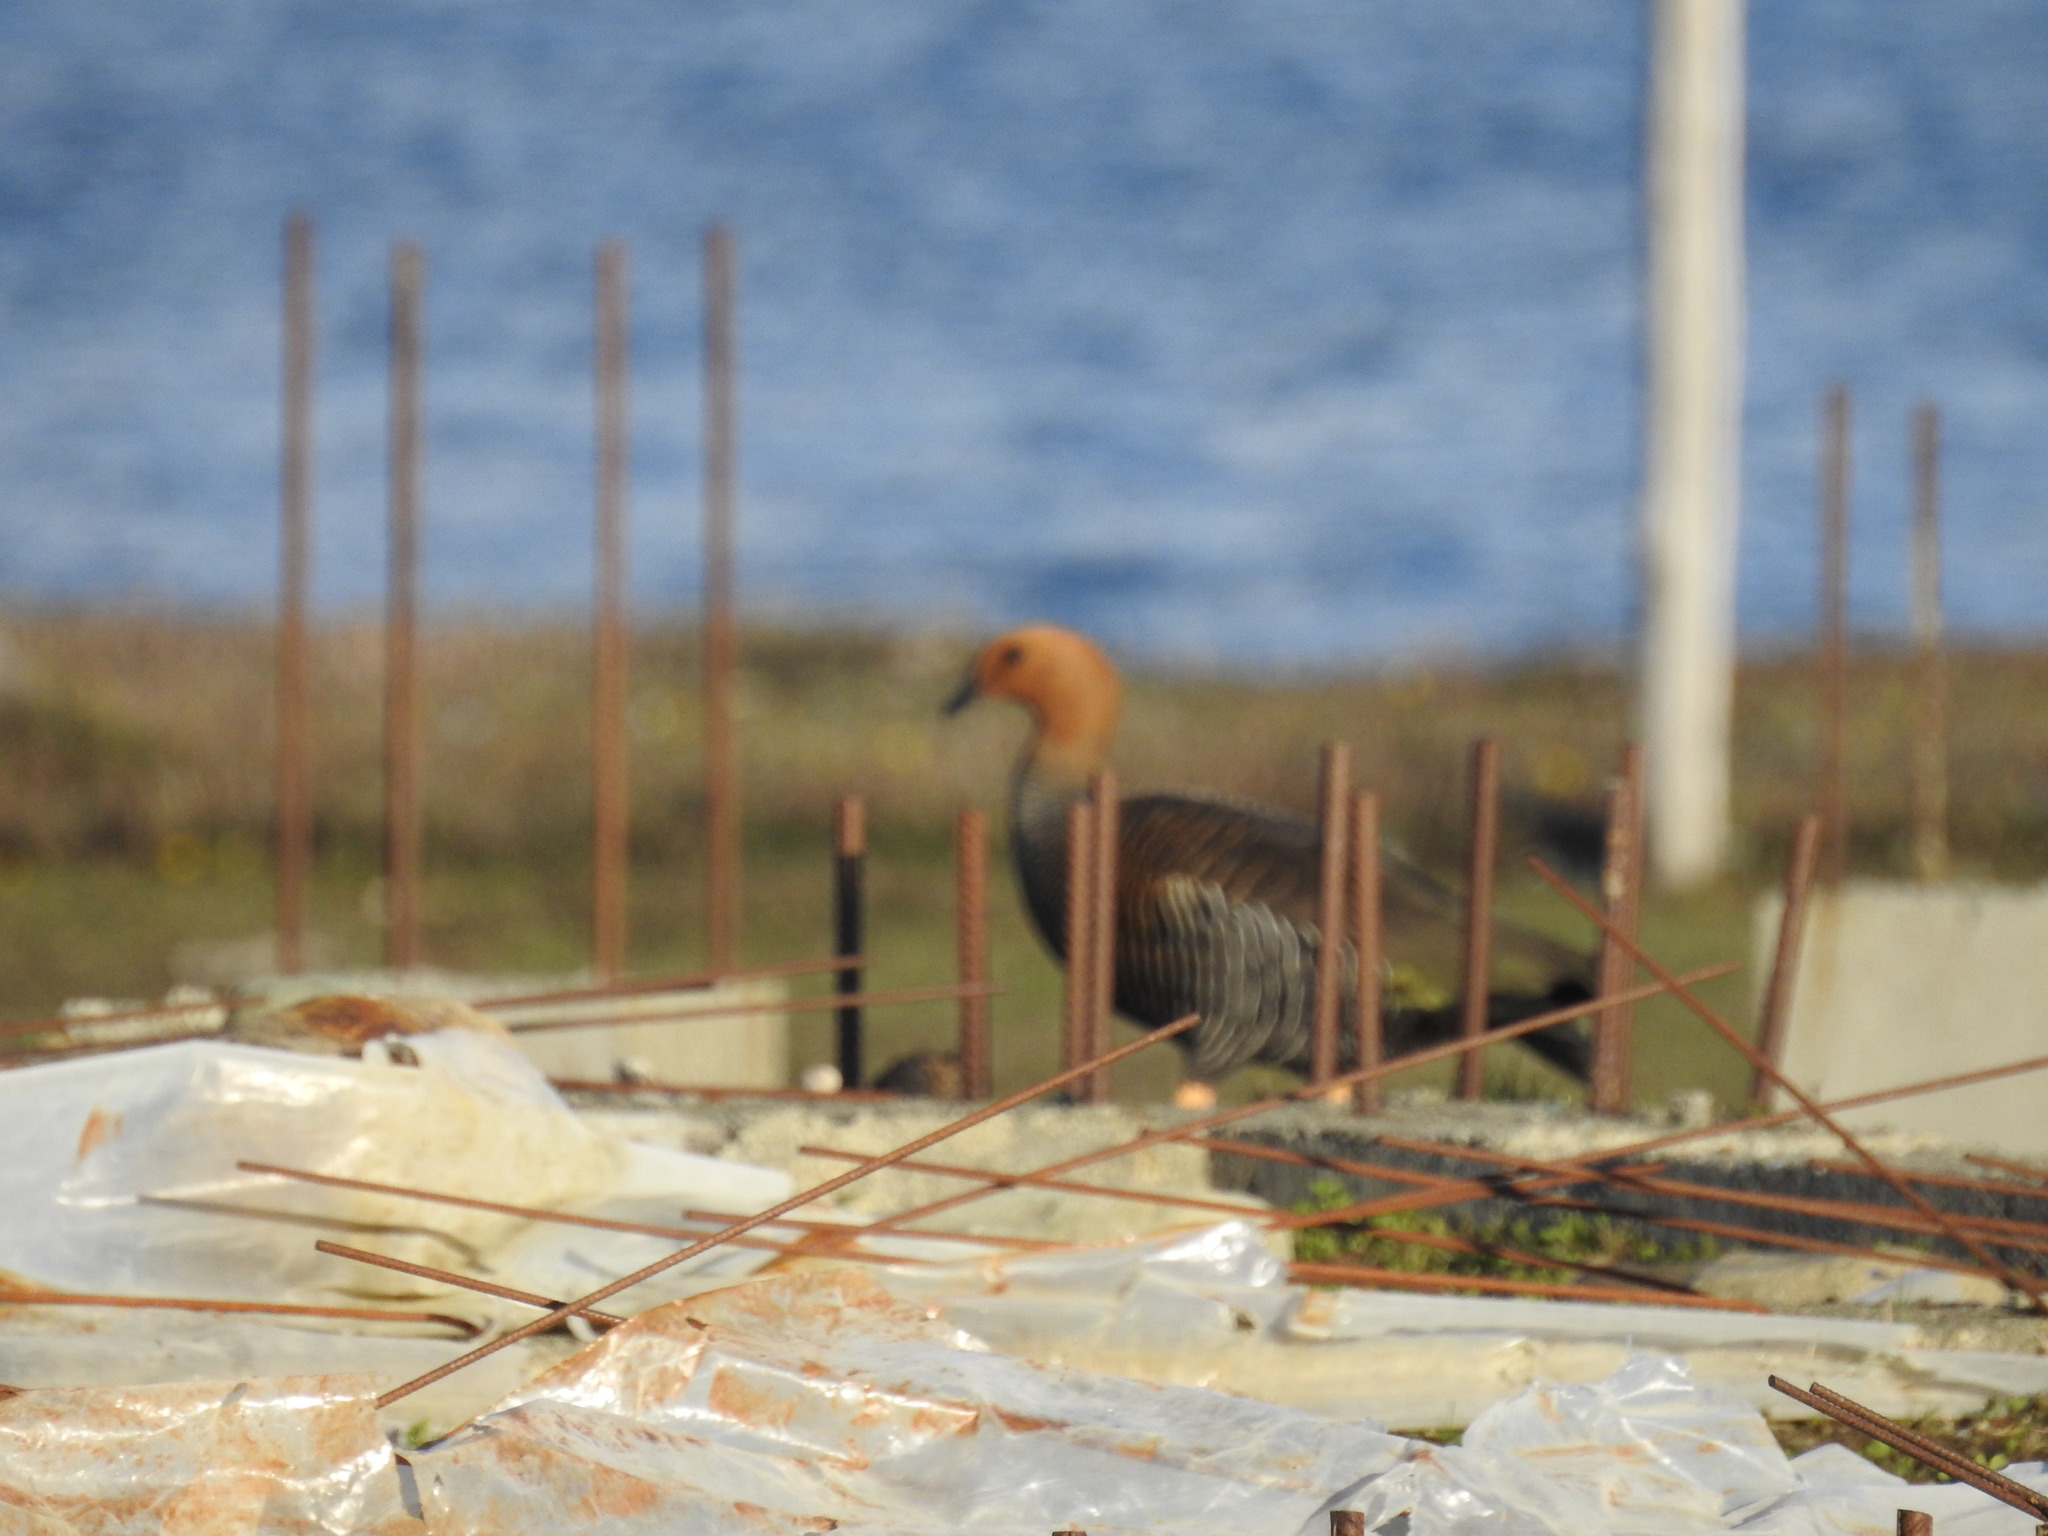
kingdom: Animalia
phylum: Chordata
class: Aves
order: Anseriformes
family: Anatidae
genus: Chloephaga
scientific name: Chloephaga picta
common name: Upland goose
